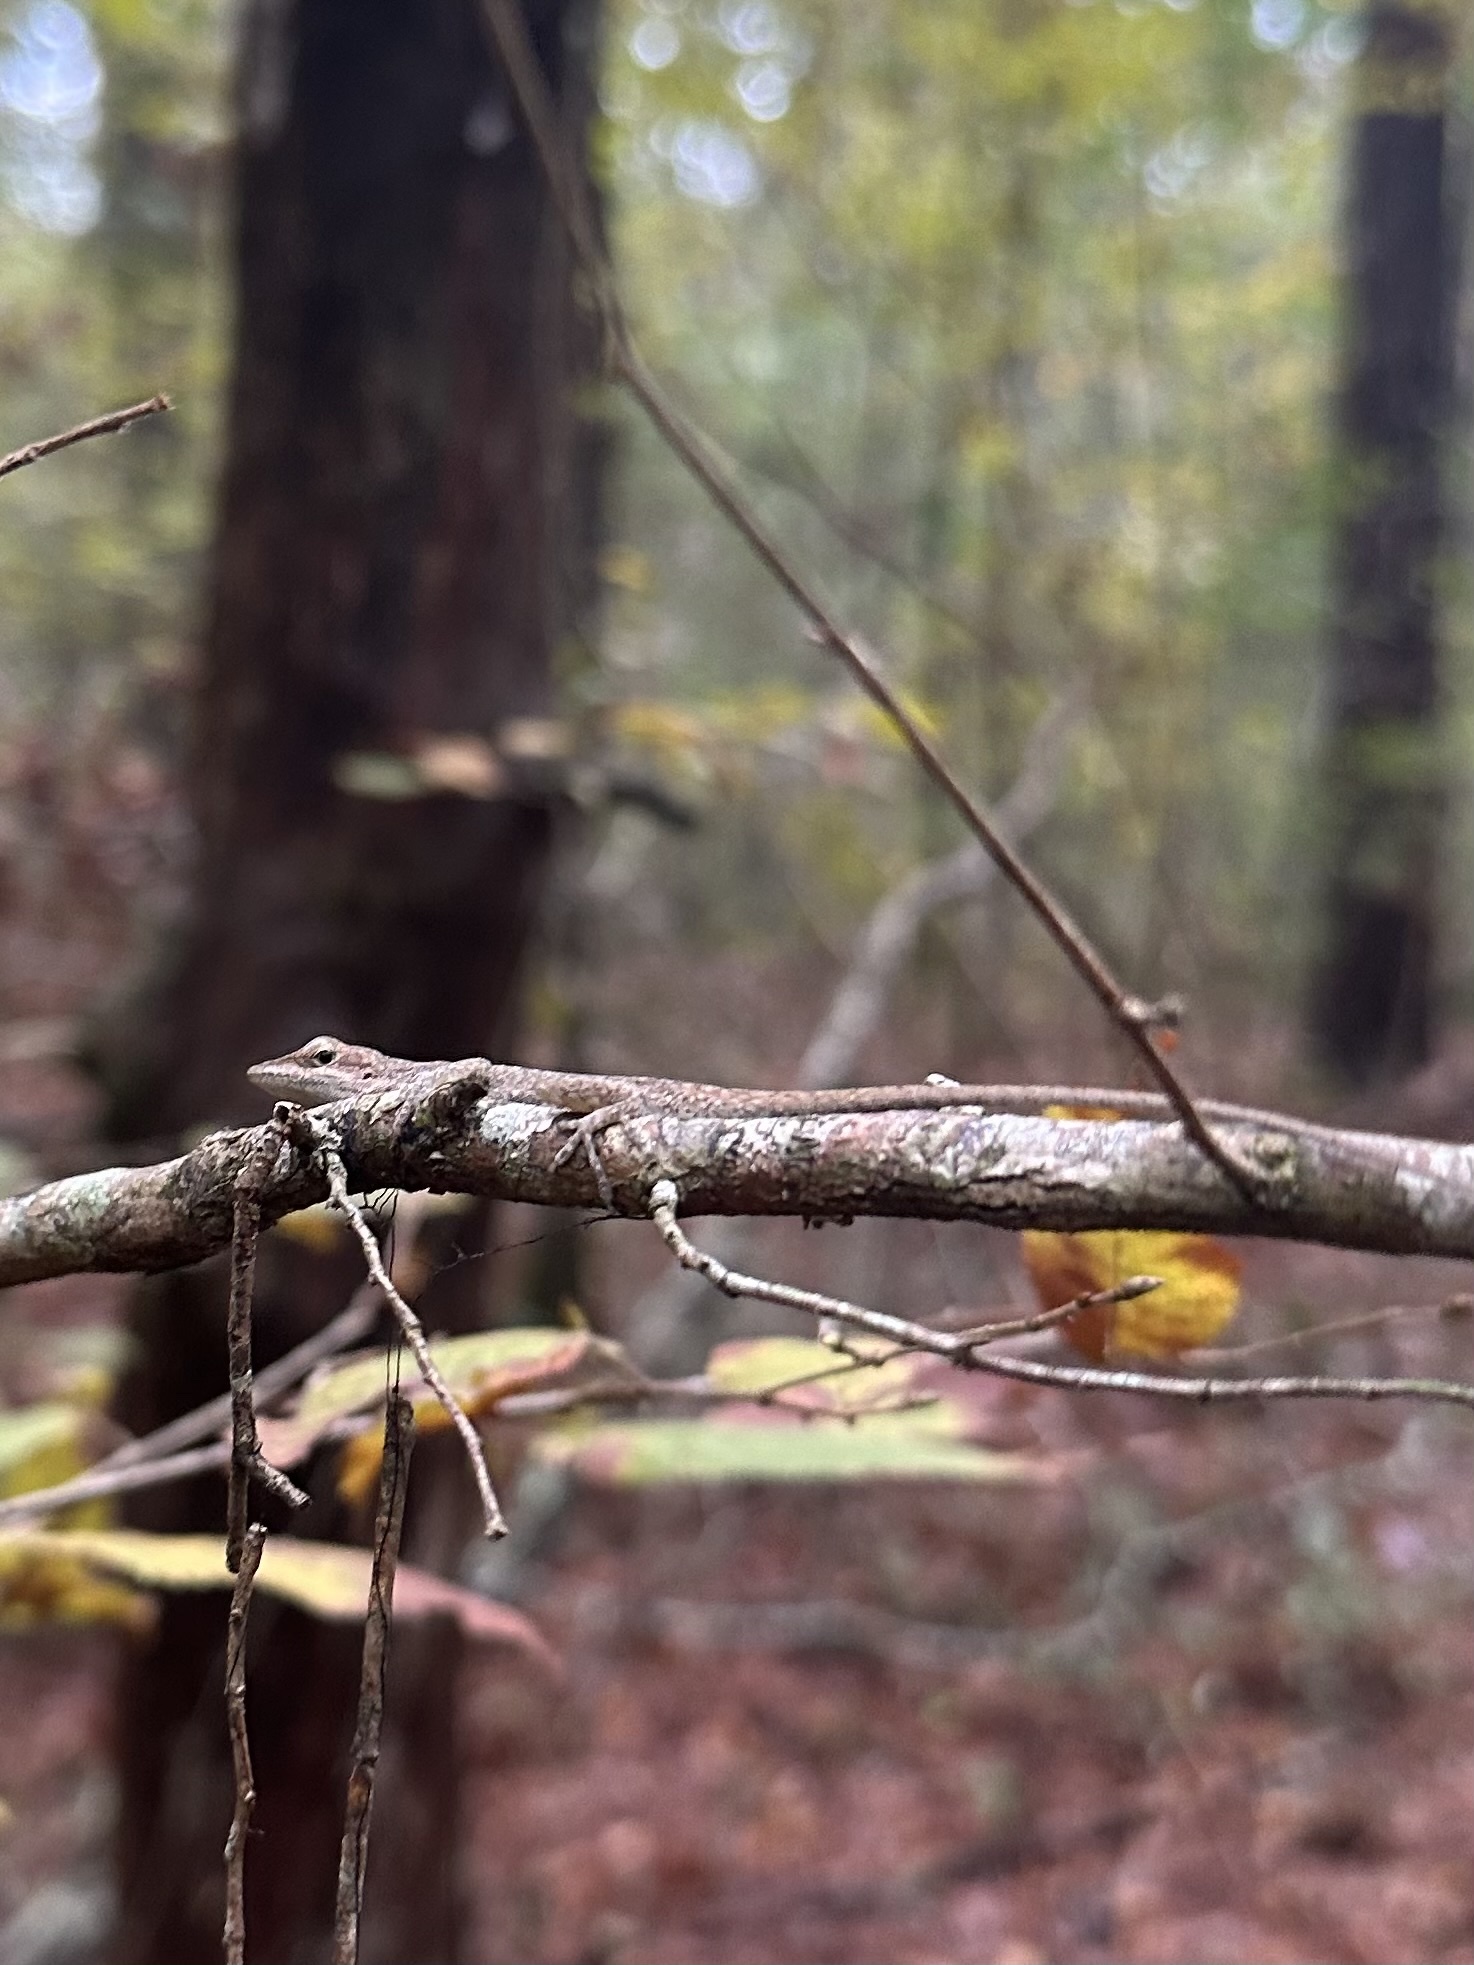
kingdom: Animalia
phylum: Chordata
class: Squamata
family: Dactyloidae
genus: Anolis
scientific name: Anolis carolinensis
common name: Green anole
